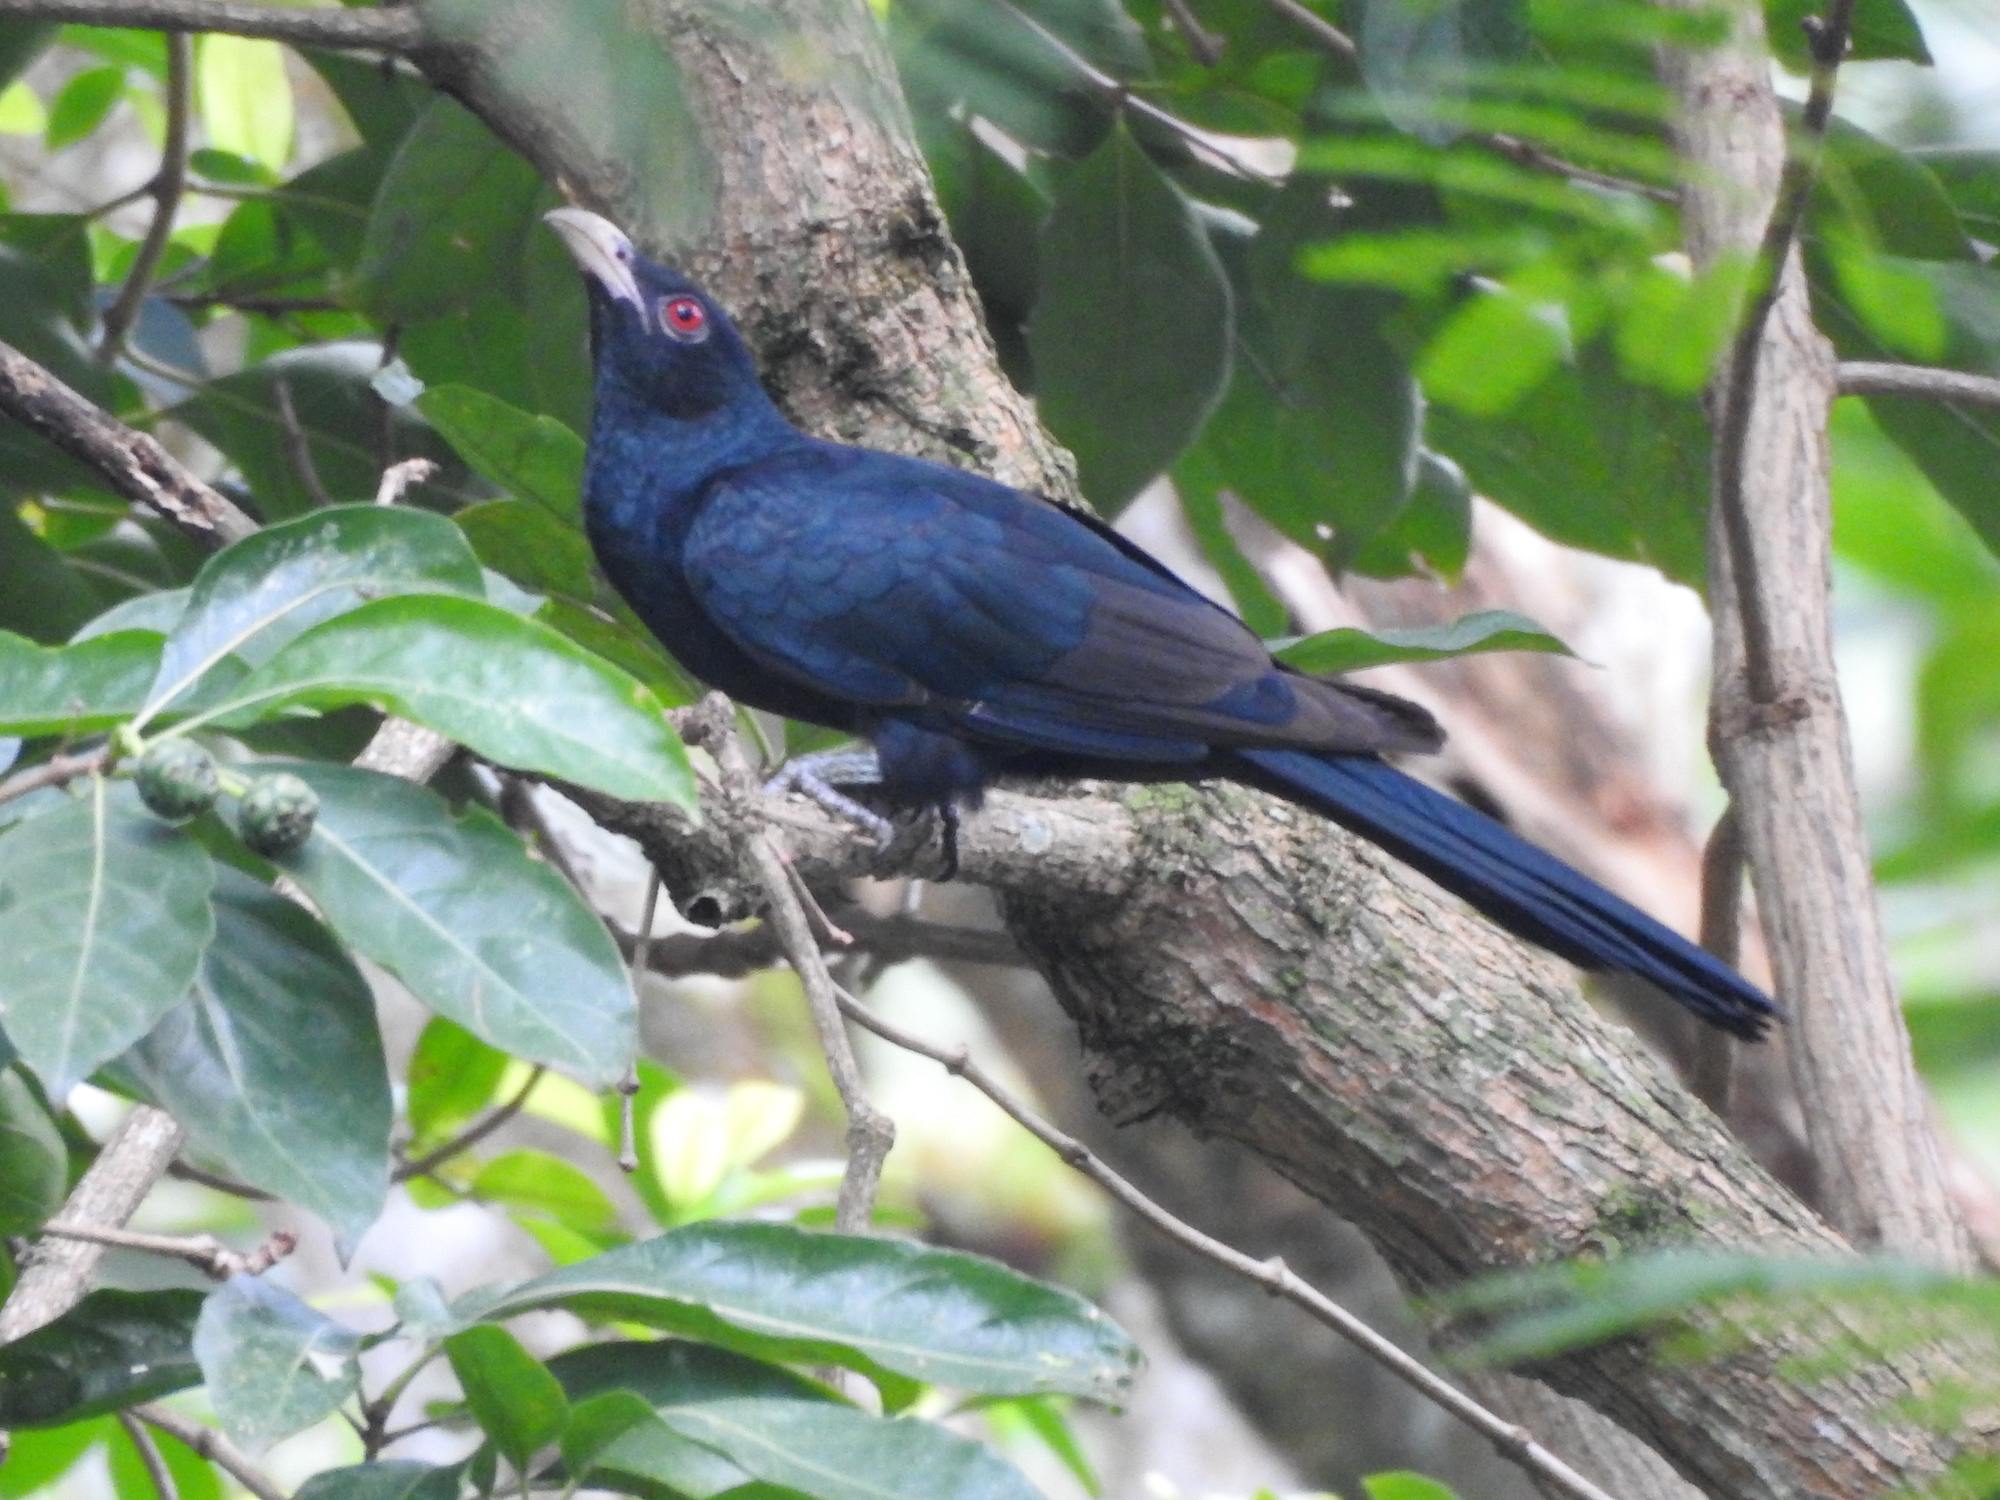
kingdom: Animalia
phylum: Chordata
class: Aves
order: Cuculiformes
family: Cuculidae
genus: Eudynamys
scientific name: Eudynamys scolopaceus
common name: Asian koel
